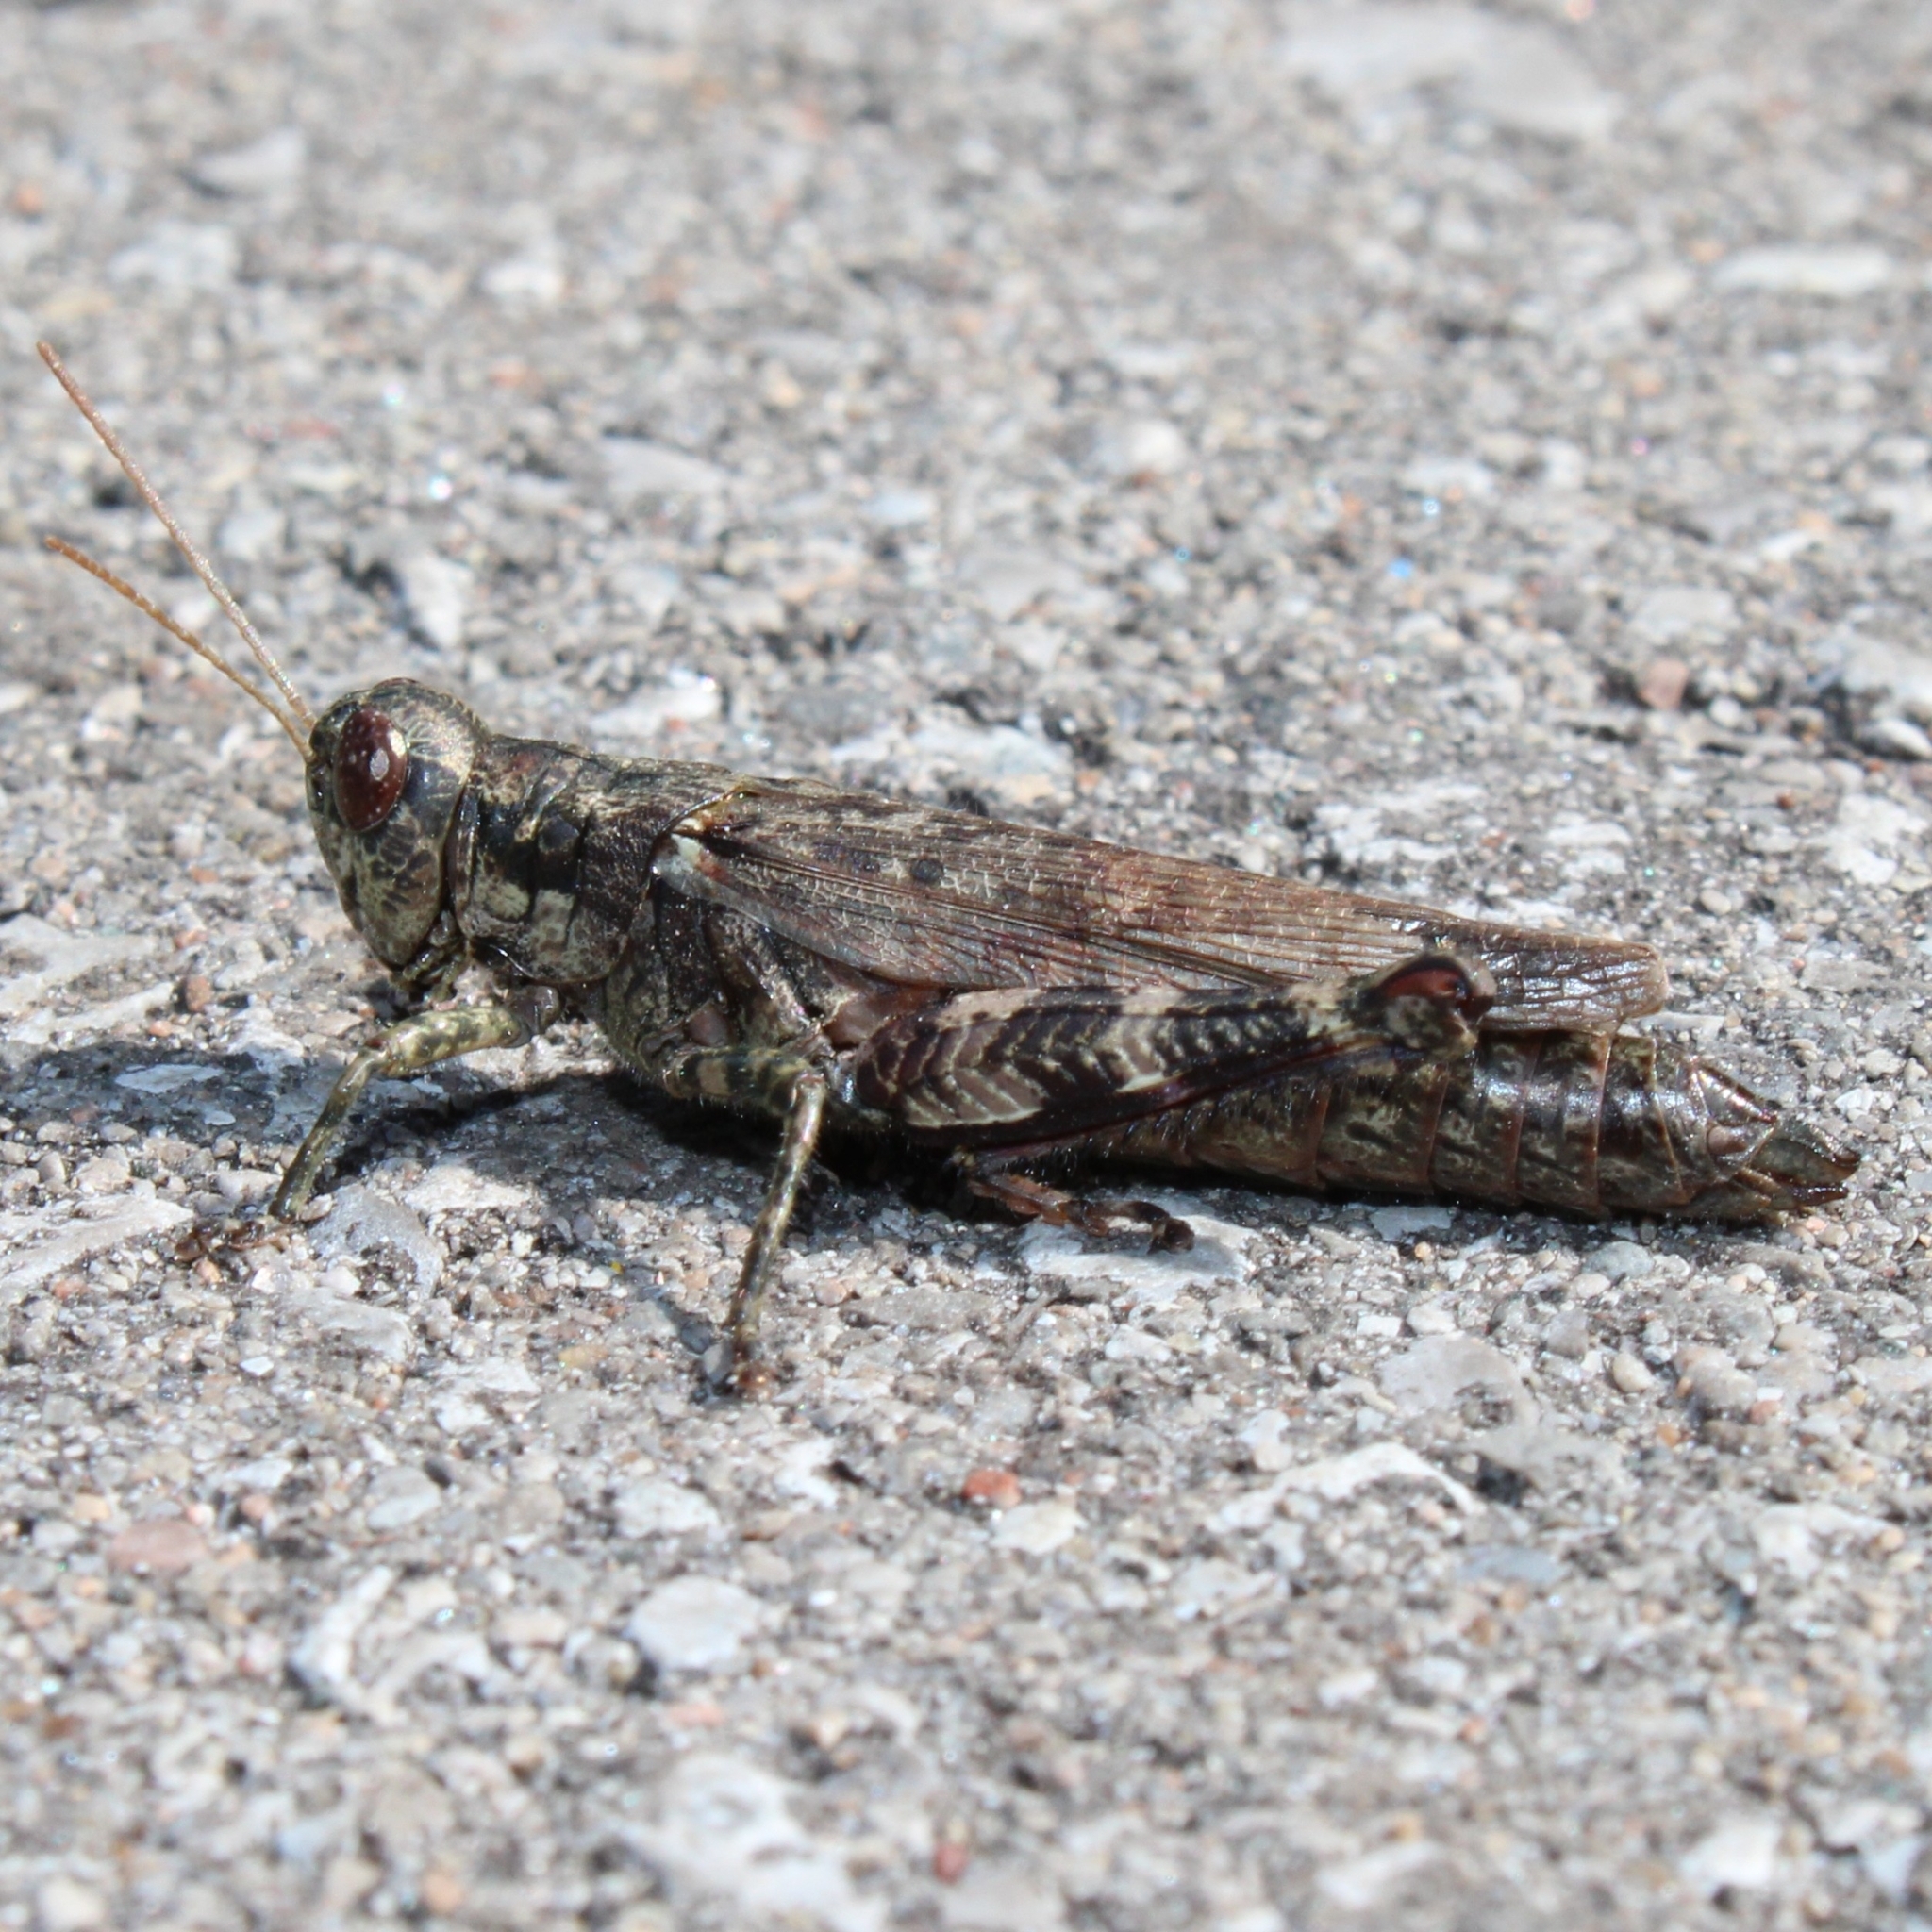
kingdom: Animalia
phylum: Arthropoda
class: Insecta
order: Orthoptera
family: Acrididae
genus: Melanoplus
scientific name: Melanoplus punctulatus
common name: Pine-tree spur-throat grasshopper
